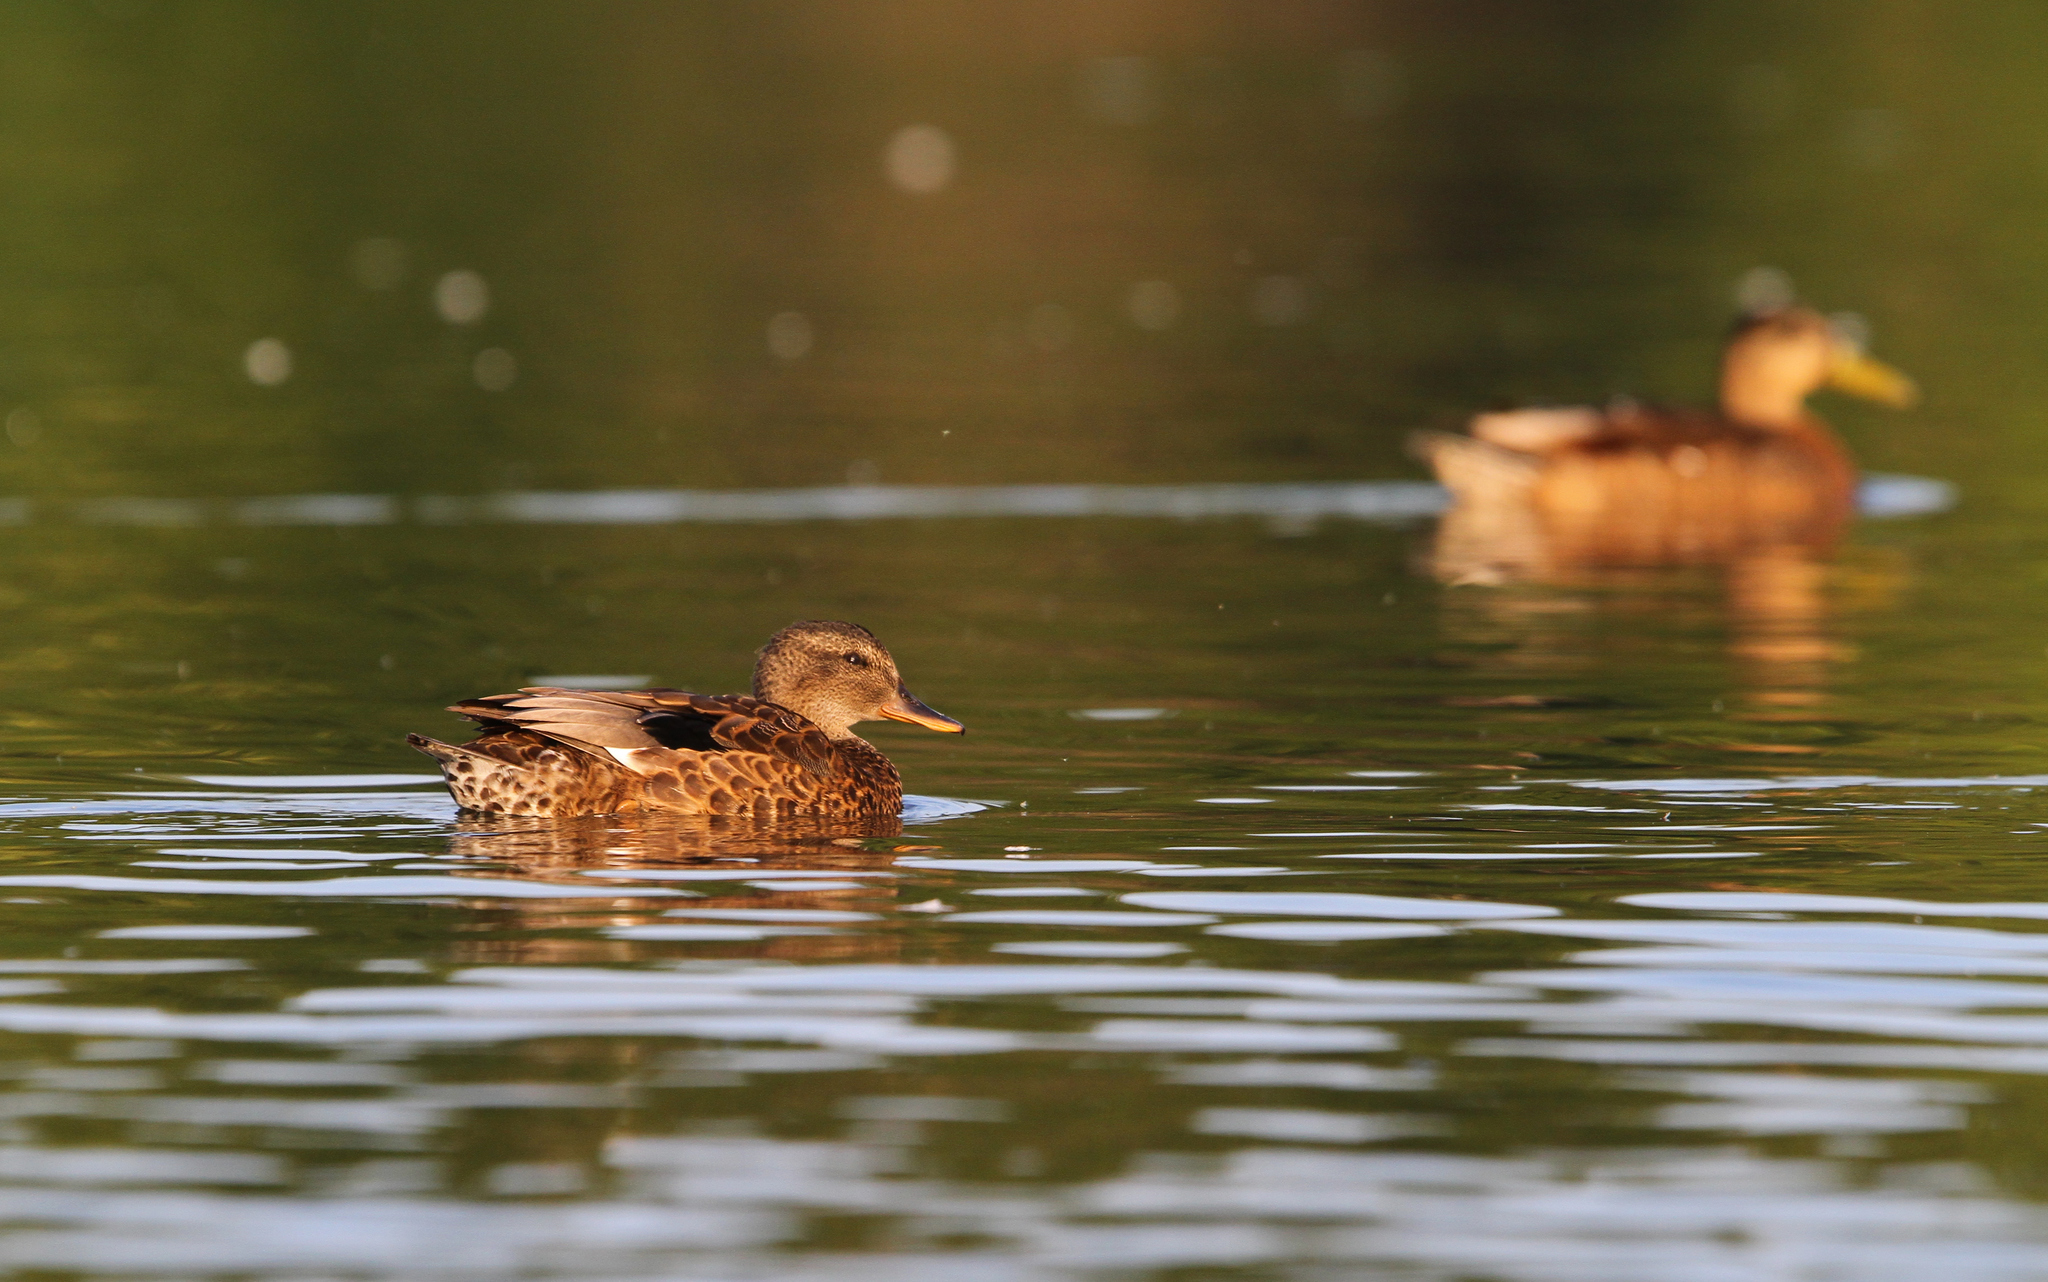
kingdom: Animalia
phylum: Chordata
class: Aves
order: Anseriformes
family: Anatidae
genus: Mareca
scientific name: Mareca strepera
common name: Gadwall
